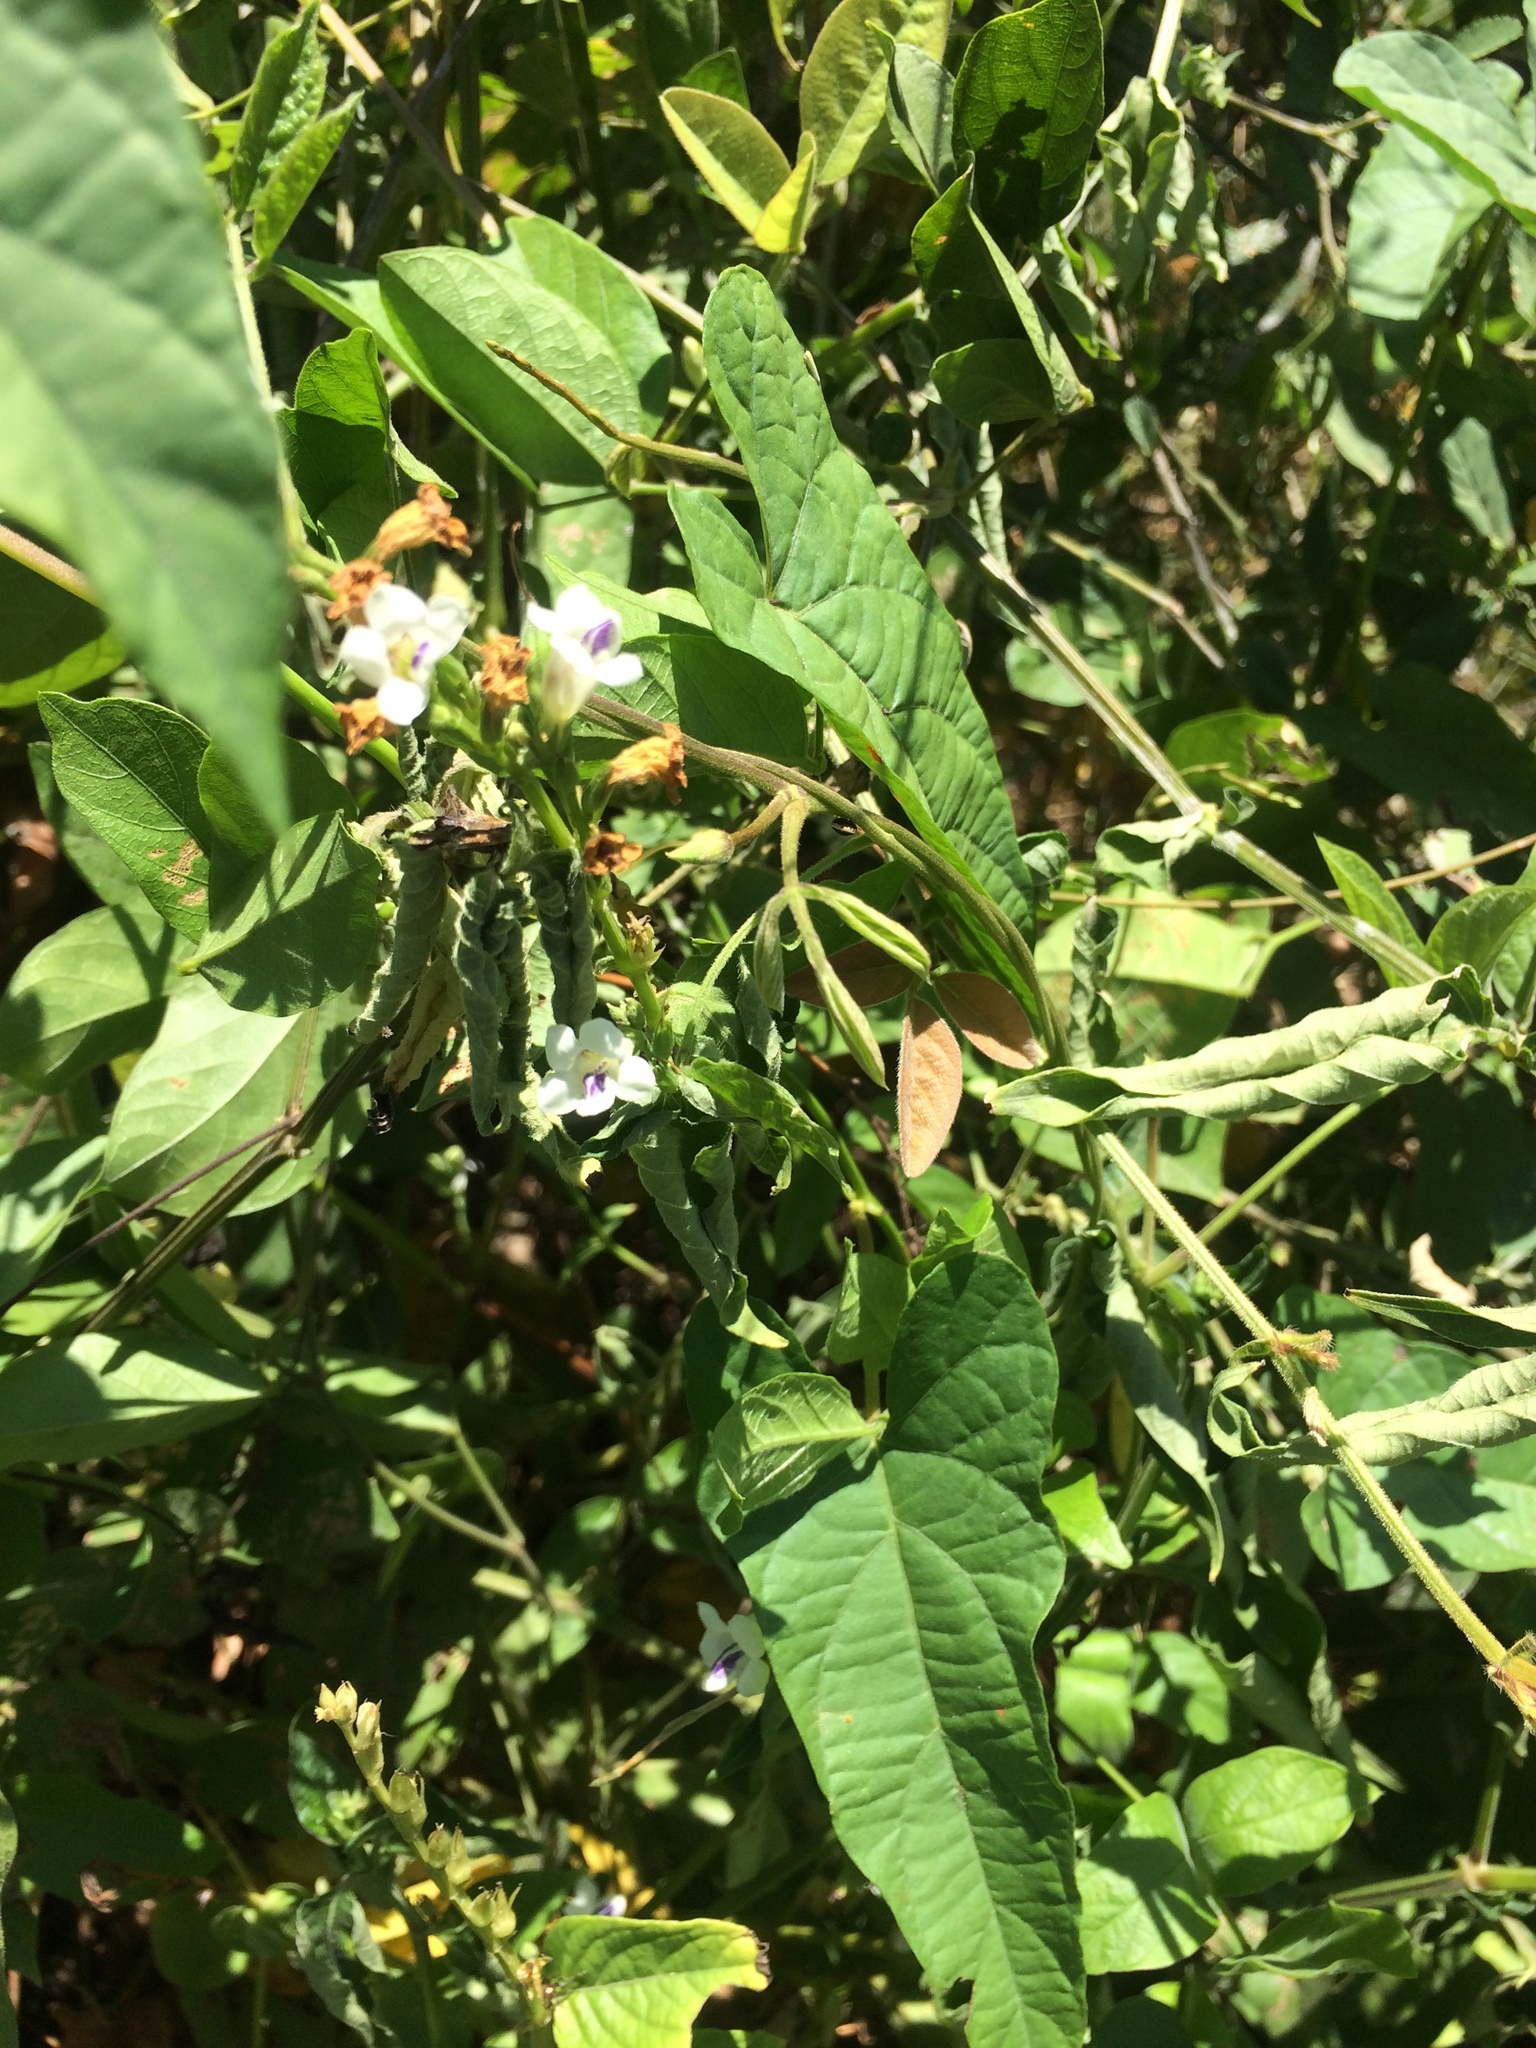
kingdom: Plantae
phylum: Tracheophyta
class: Magnoliopsida
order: Lamiales
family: Acanthaceae
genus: Asystasia
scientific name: Asystasia intrusa
